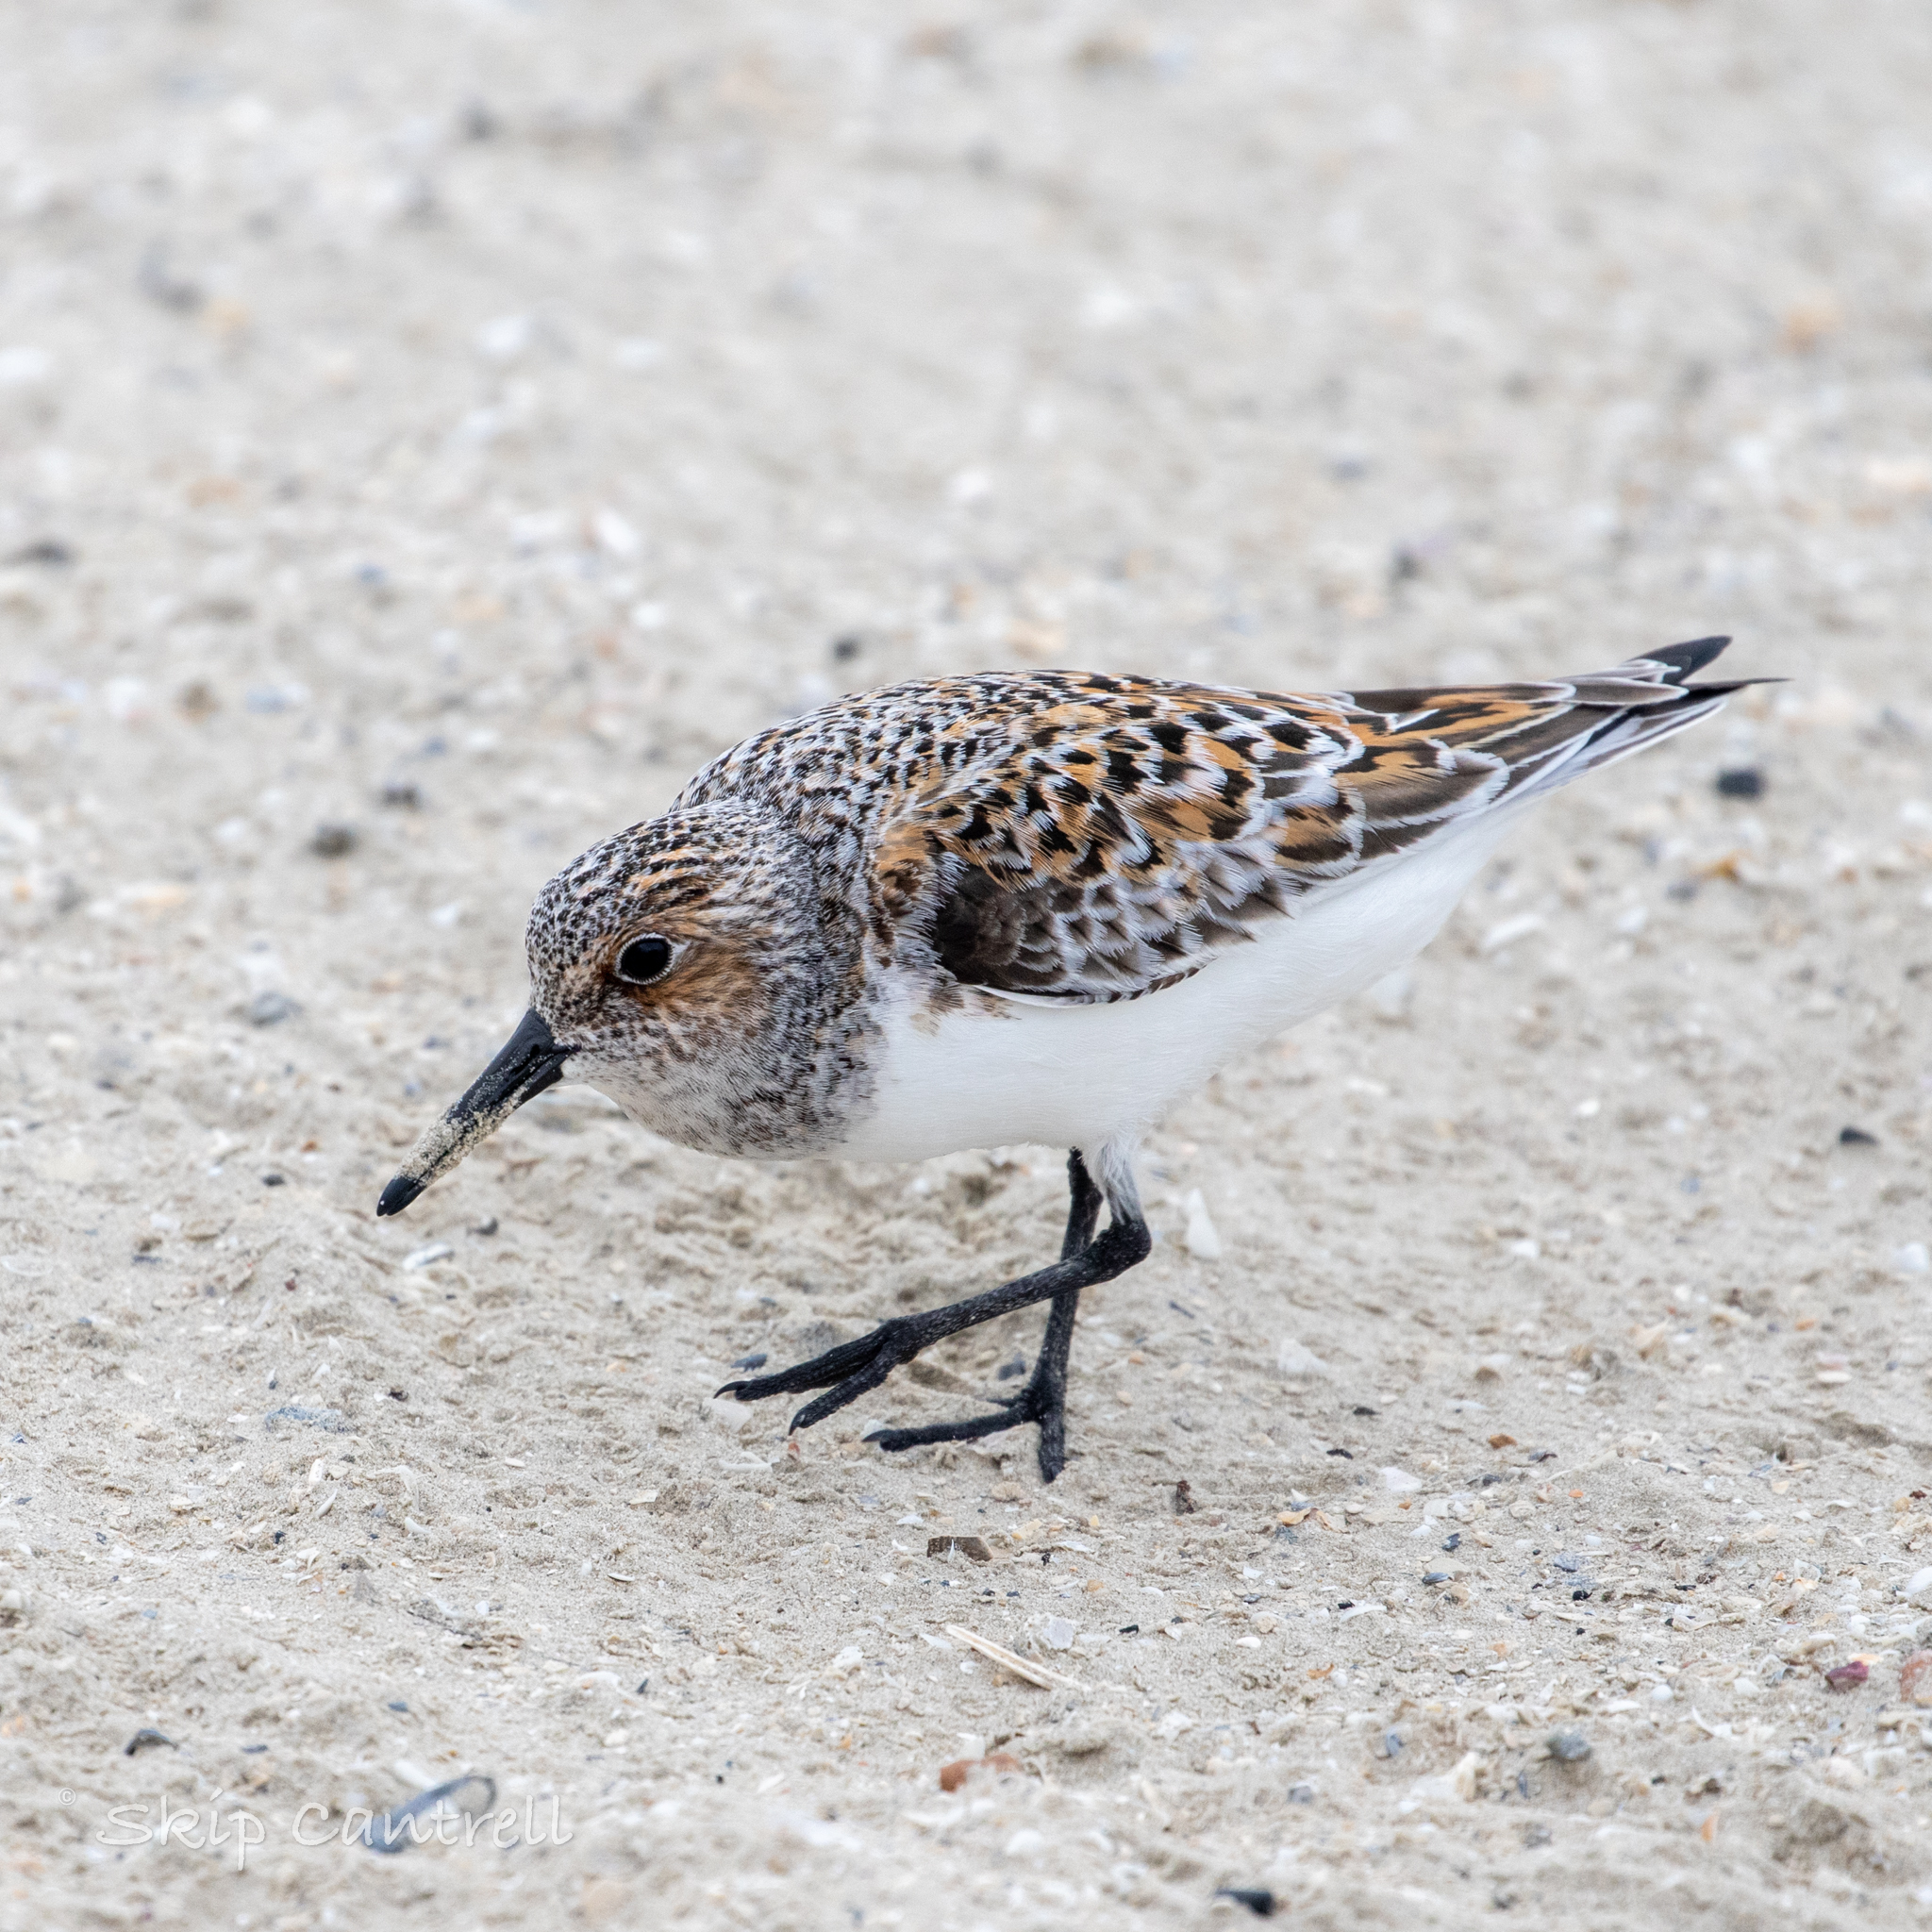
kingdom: Animalia
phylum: Chordata
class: Aves
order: Charadriiformes
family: Scolopacidae
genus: Calidris
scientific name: Calidris alba
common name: Sanderling
